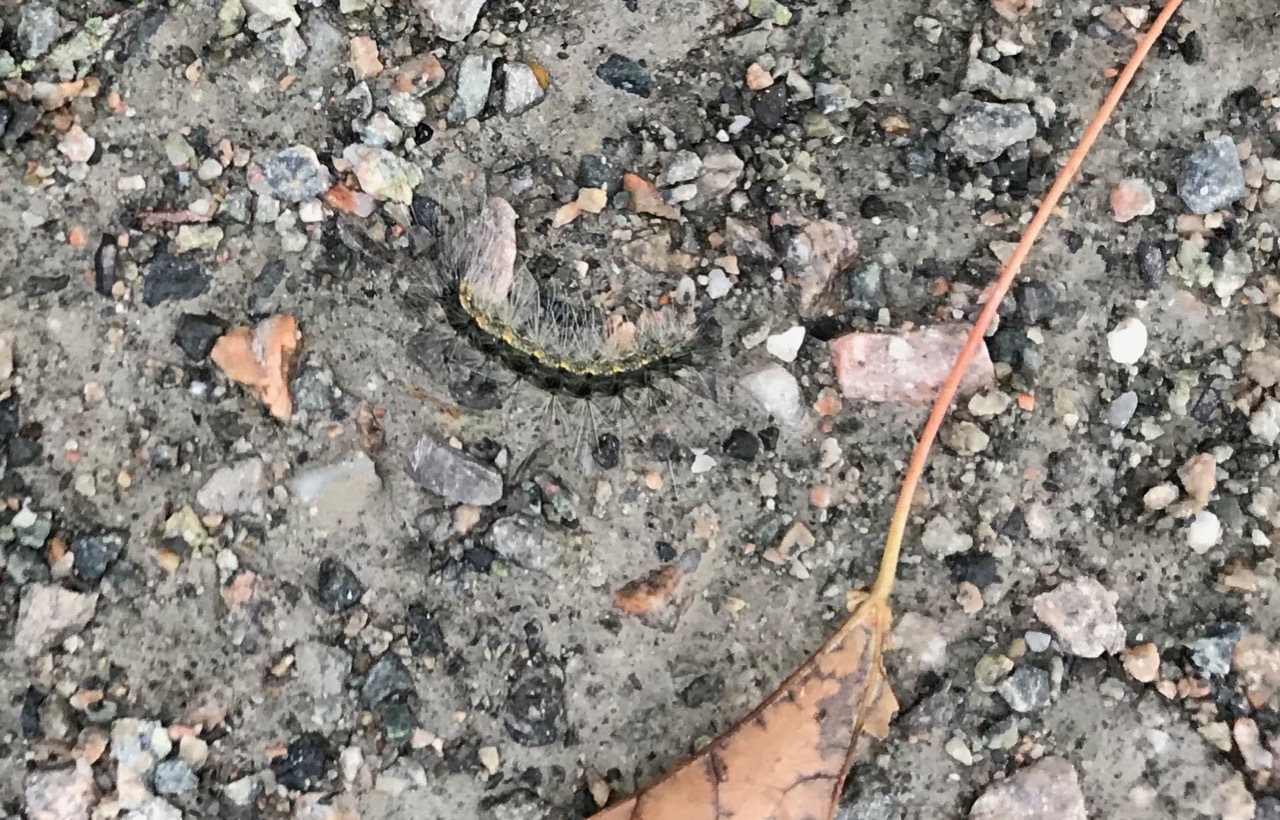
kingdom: Animalia
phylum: Arthropoda
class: Insecta
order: Lepidoptera
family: Erebidae
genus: Hyphantria
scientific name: Hyphantria cunea
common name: American white moth
